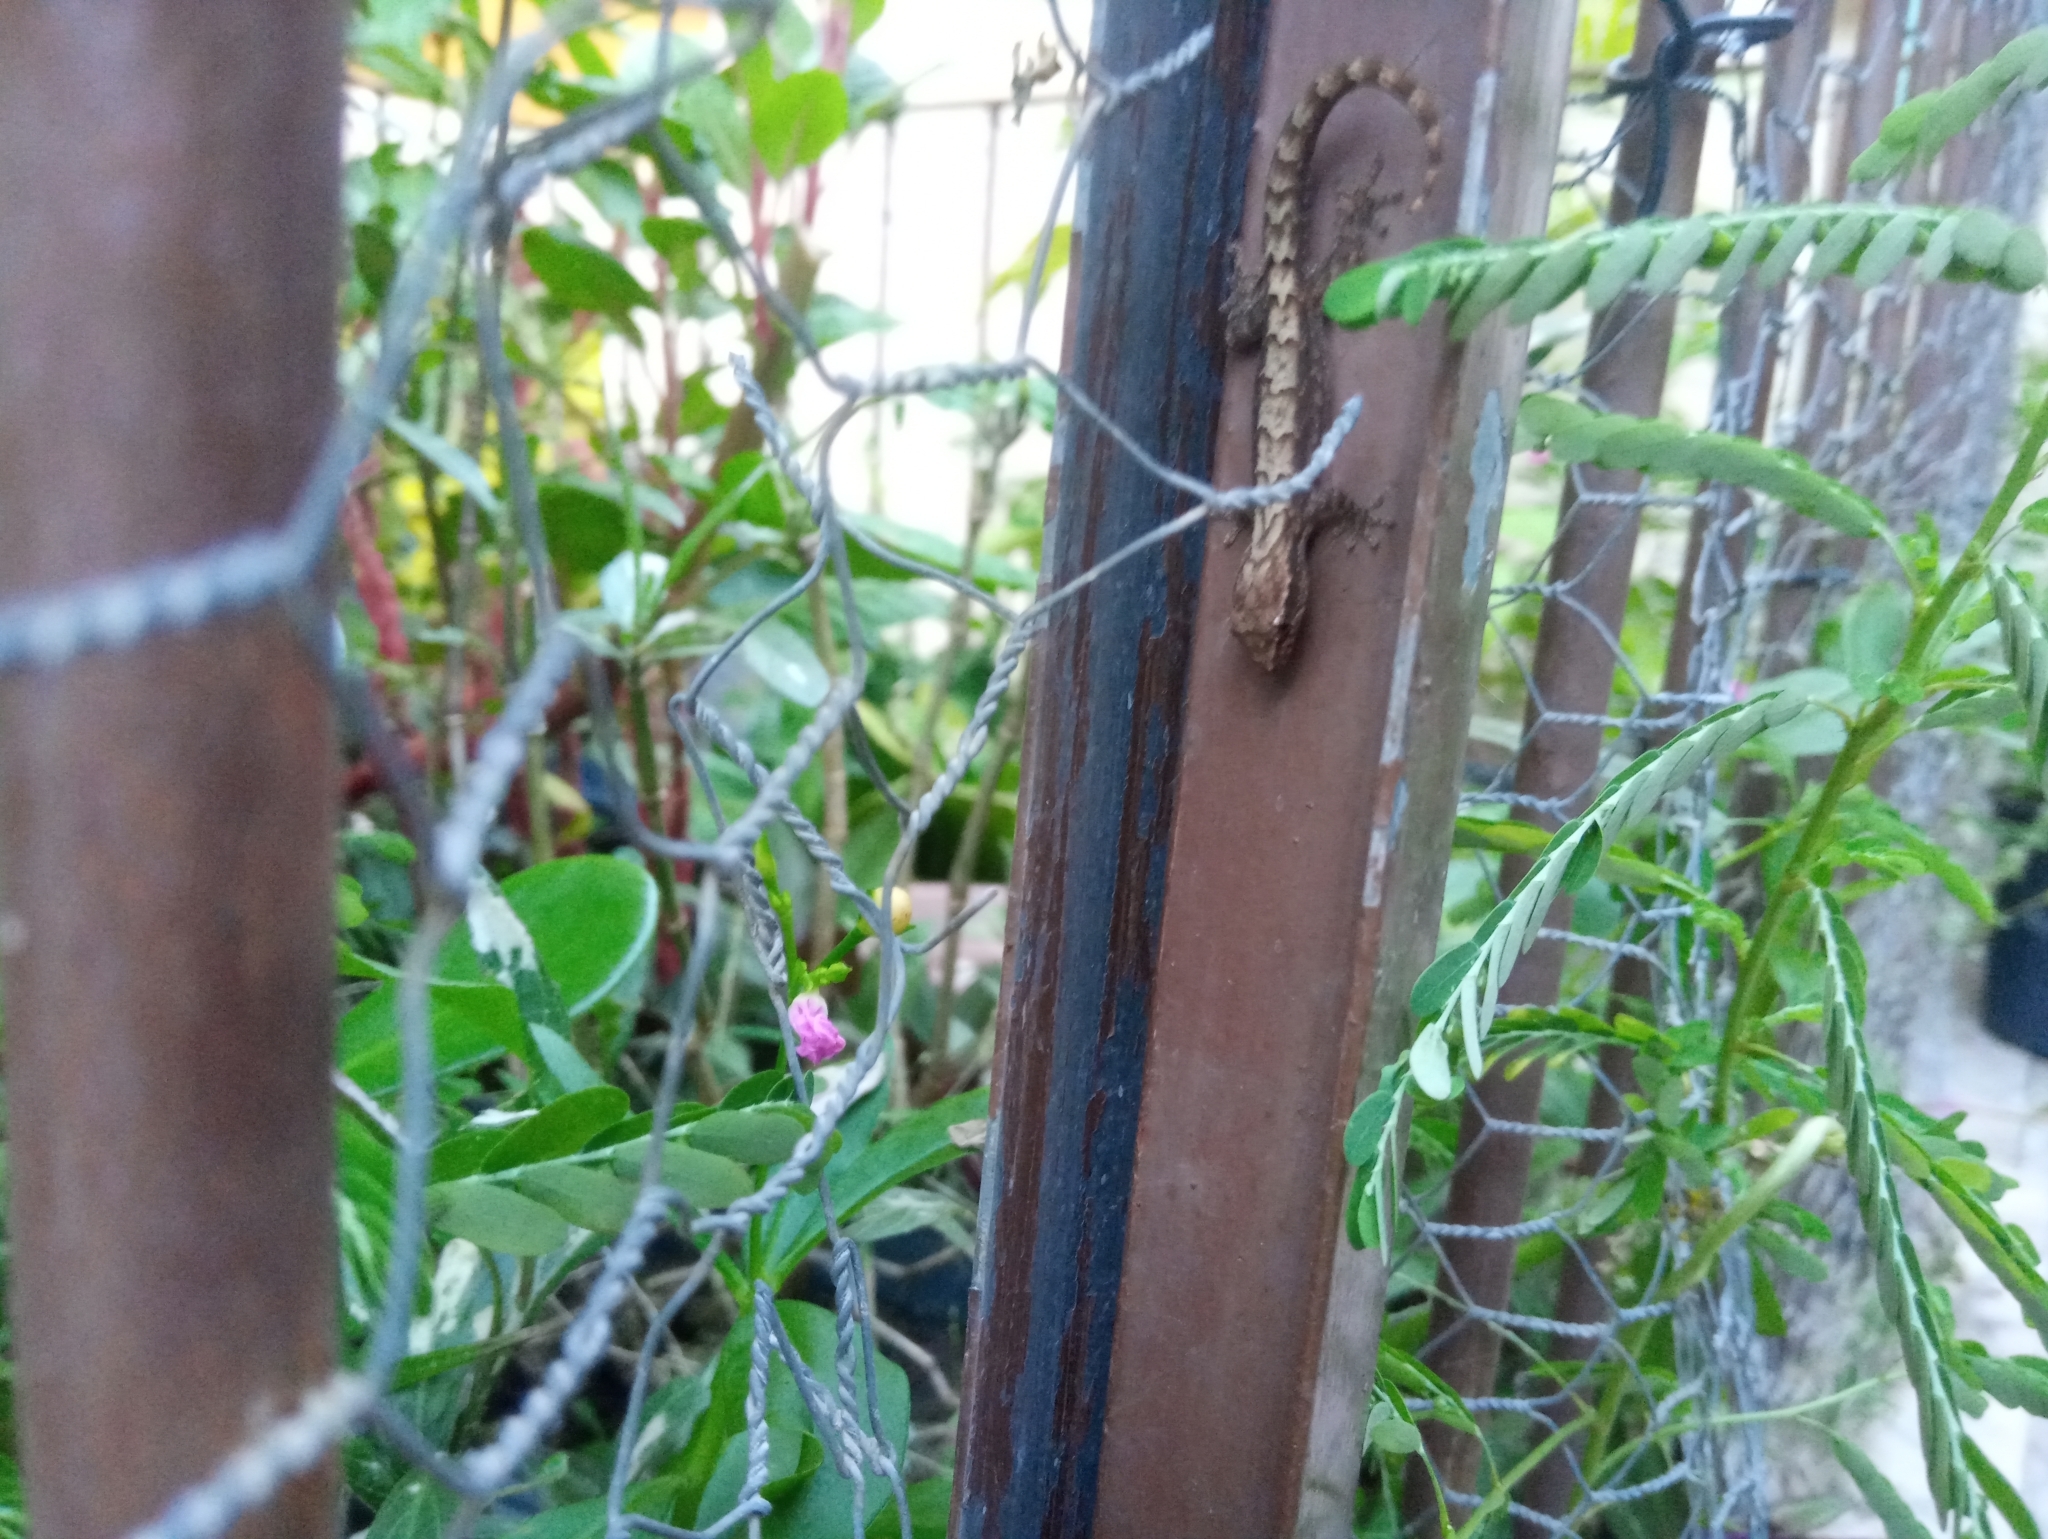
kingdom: Animalia
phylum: Chordata
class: Squamata
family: Gekkonidae
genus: Lepidodactylus
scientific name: Lepidodactylus lugubris
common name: Mourning gecko
